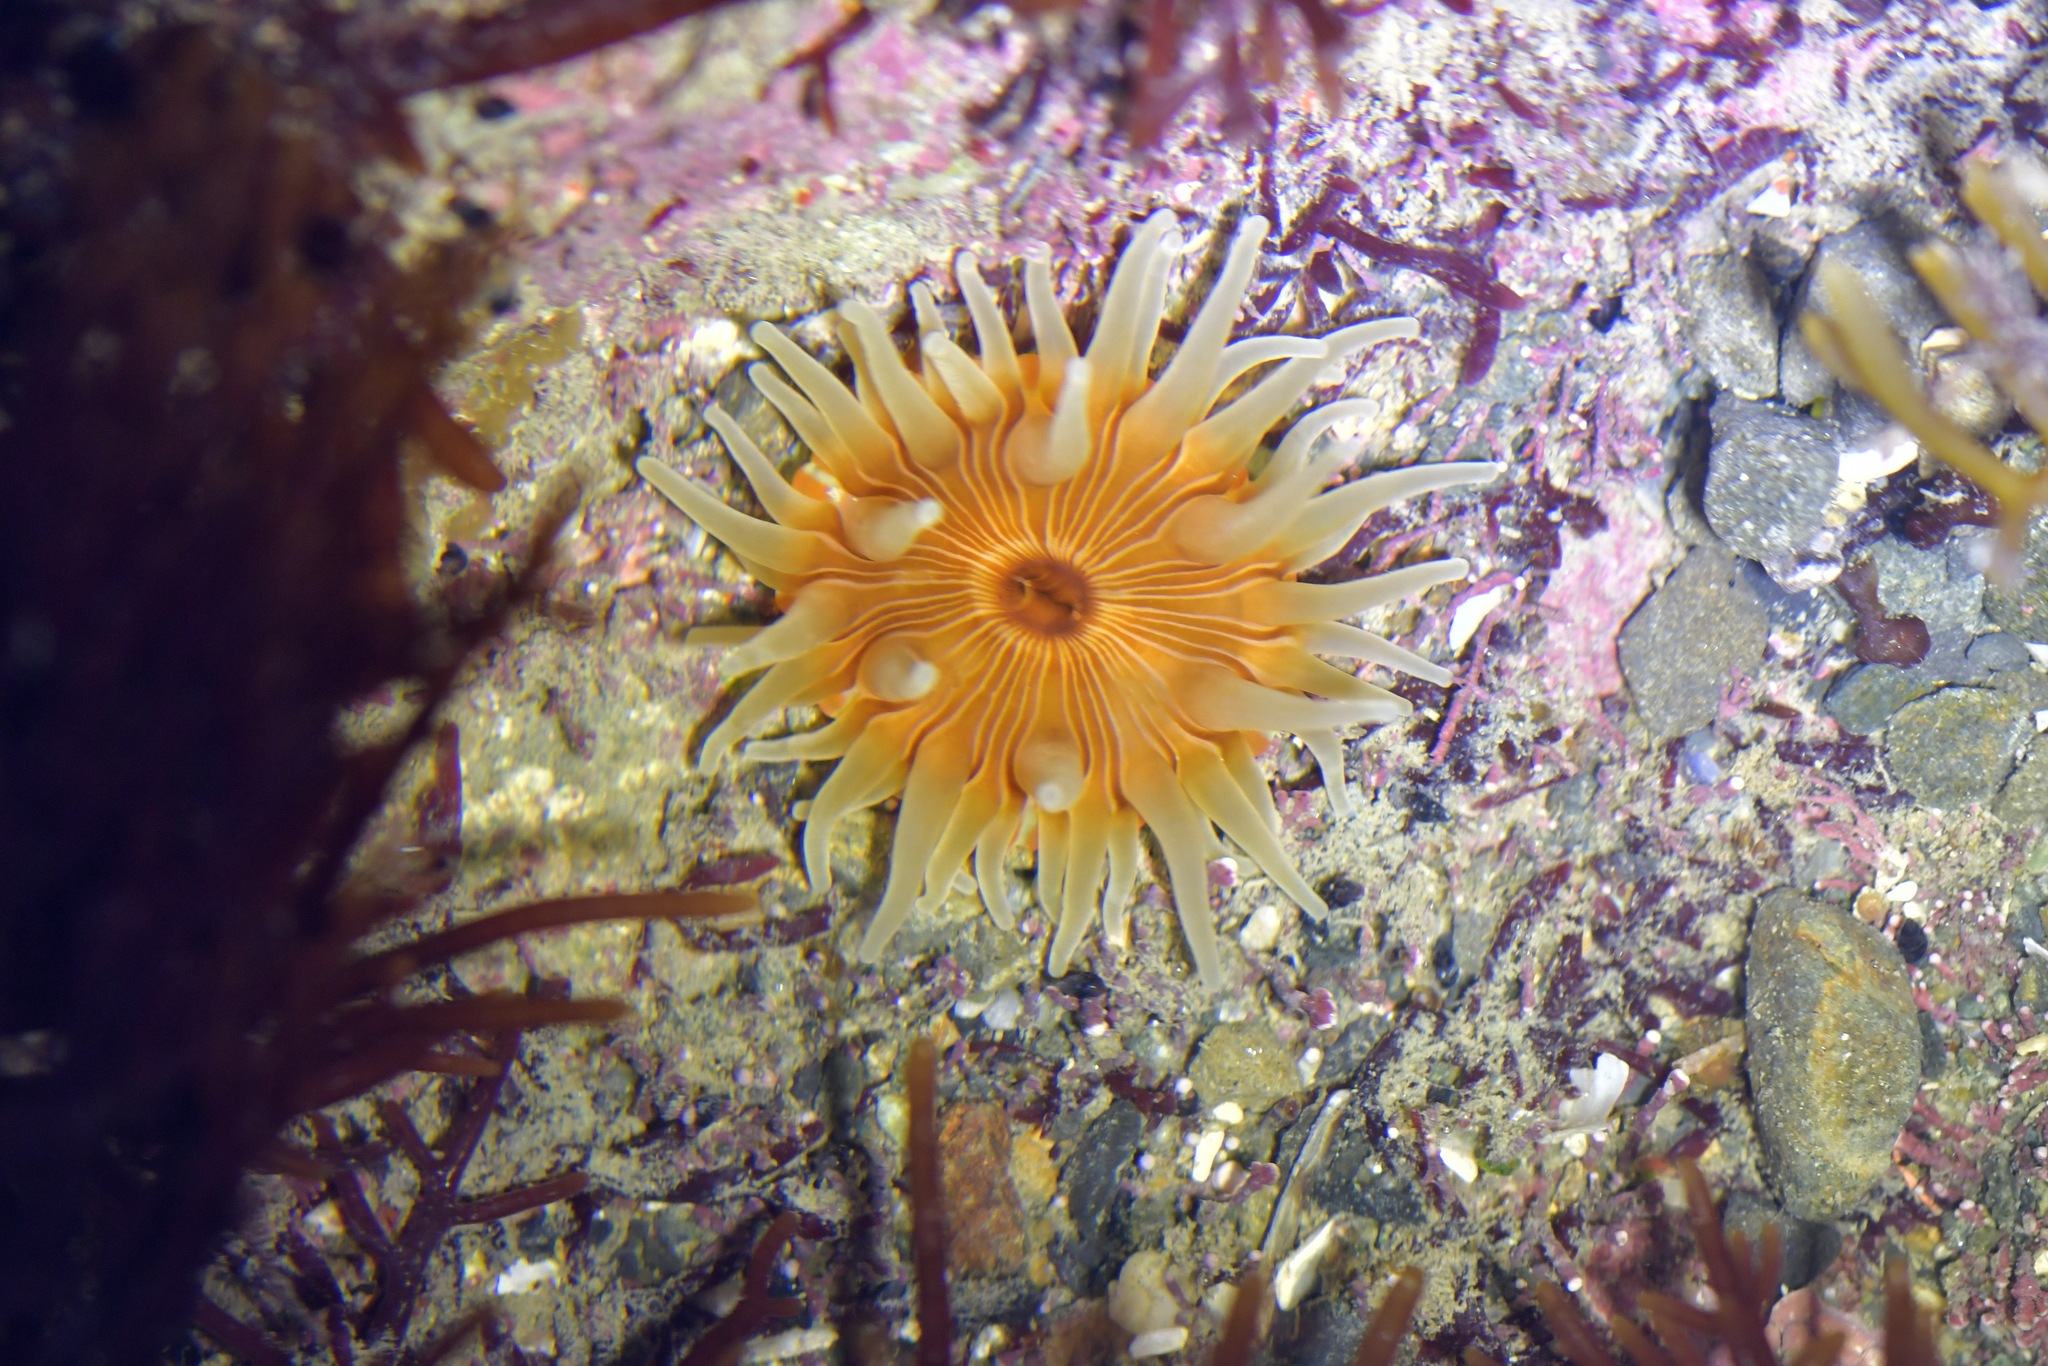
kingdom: Animalia
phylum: Cnidaria
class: Anthozoa
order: Actiniaria
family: Sagartiidae
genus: Anthothoe
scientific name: Anthothoe albocincta
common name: Orange striped anemone
